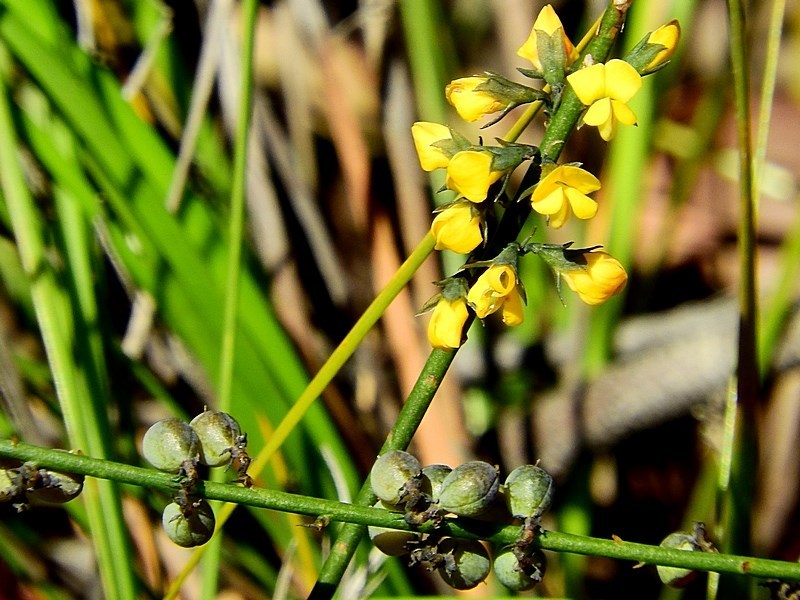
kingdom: Plantae
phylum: Tracheophyta
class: Magnoliopsida
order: Fabales
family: Fabaceae
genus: Sphaerolobium
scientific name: Sphaerolobium minus
